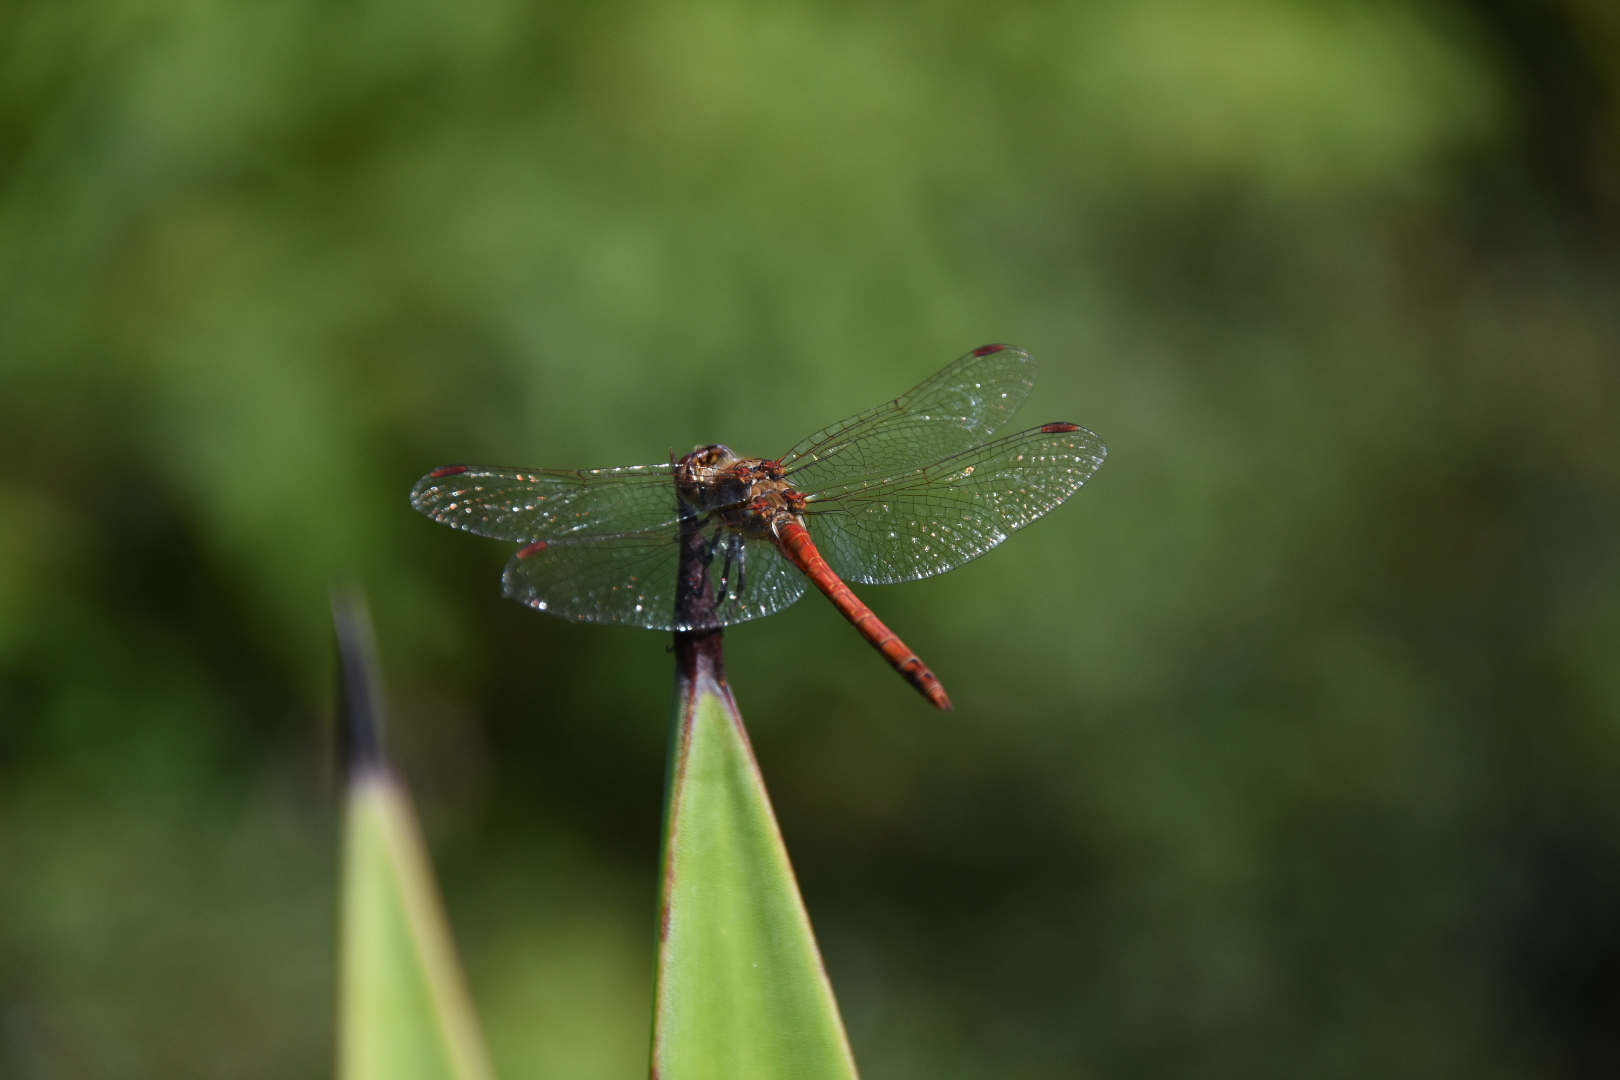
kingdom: Animalia
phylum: Arthropoda
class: Insecta
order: Odonata
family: Libellulidae
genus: Sympetrum
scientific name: Sympetrum striolatum
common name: Common darter
